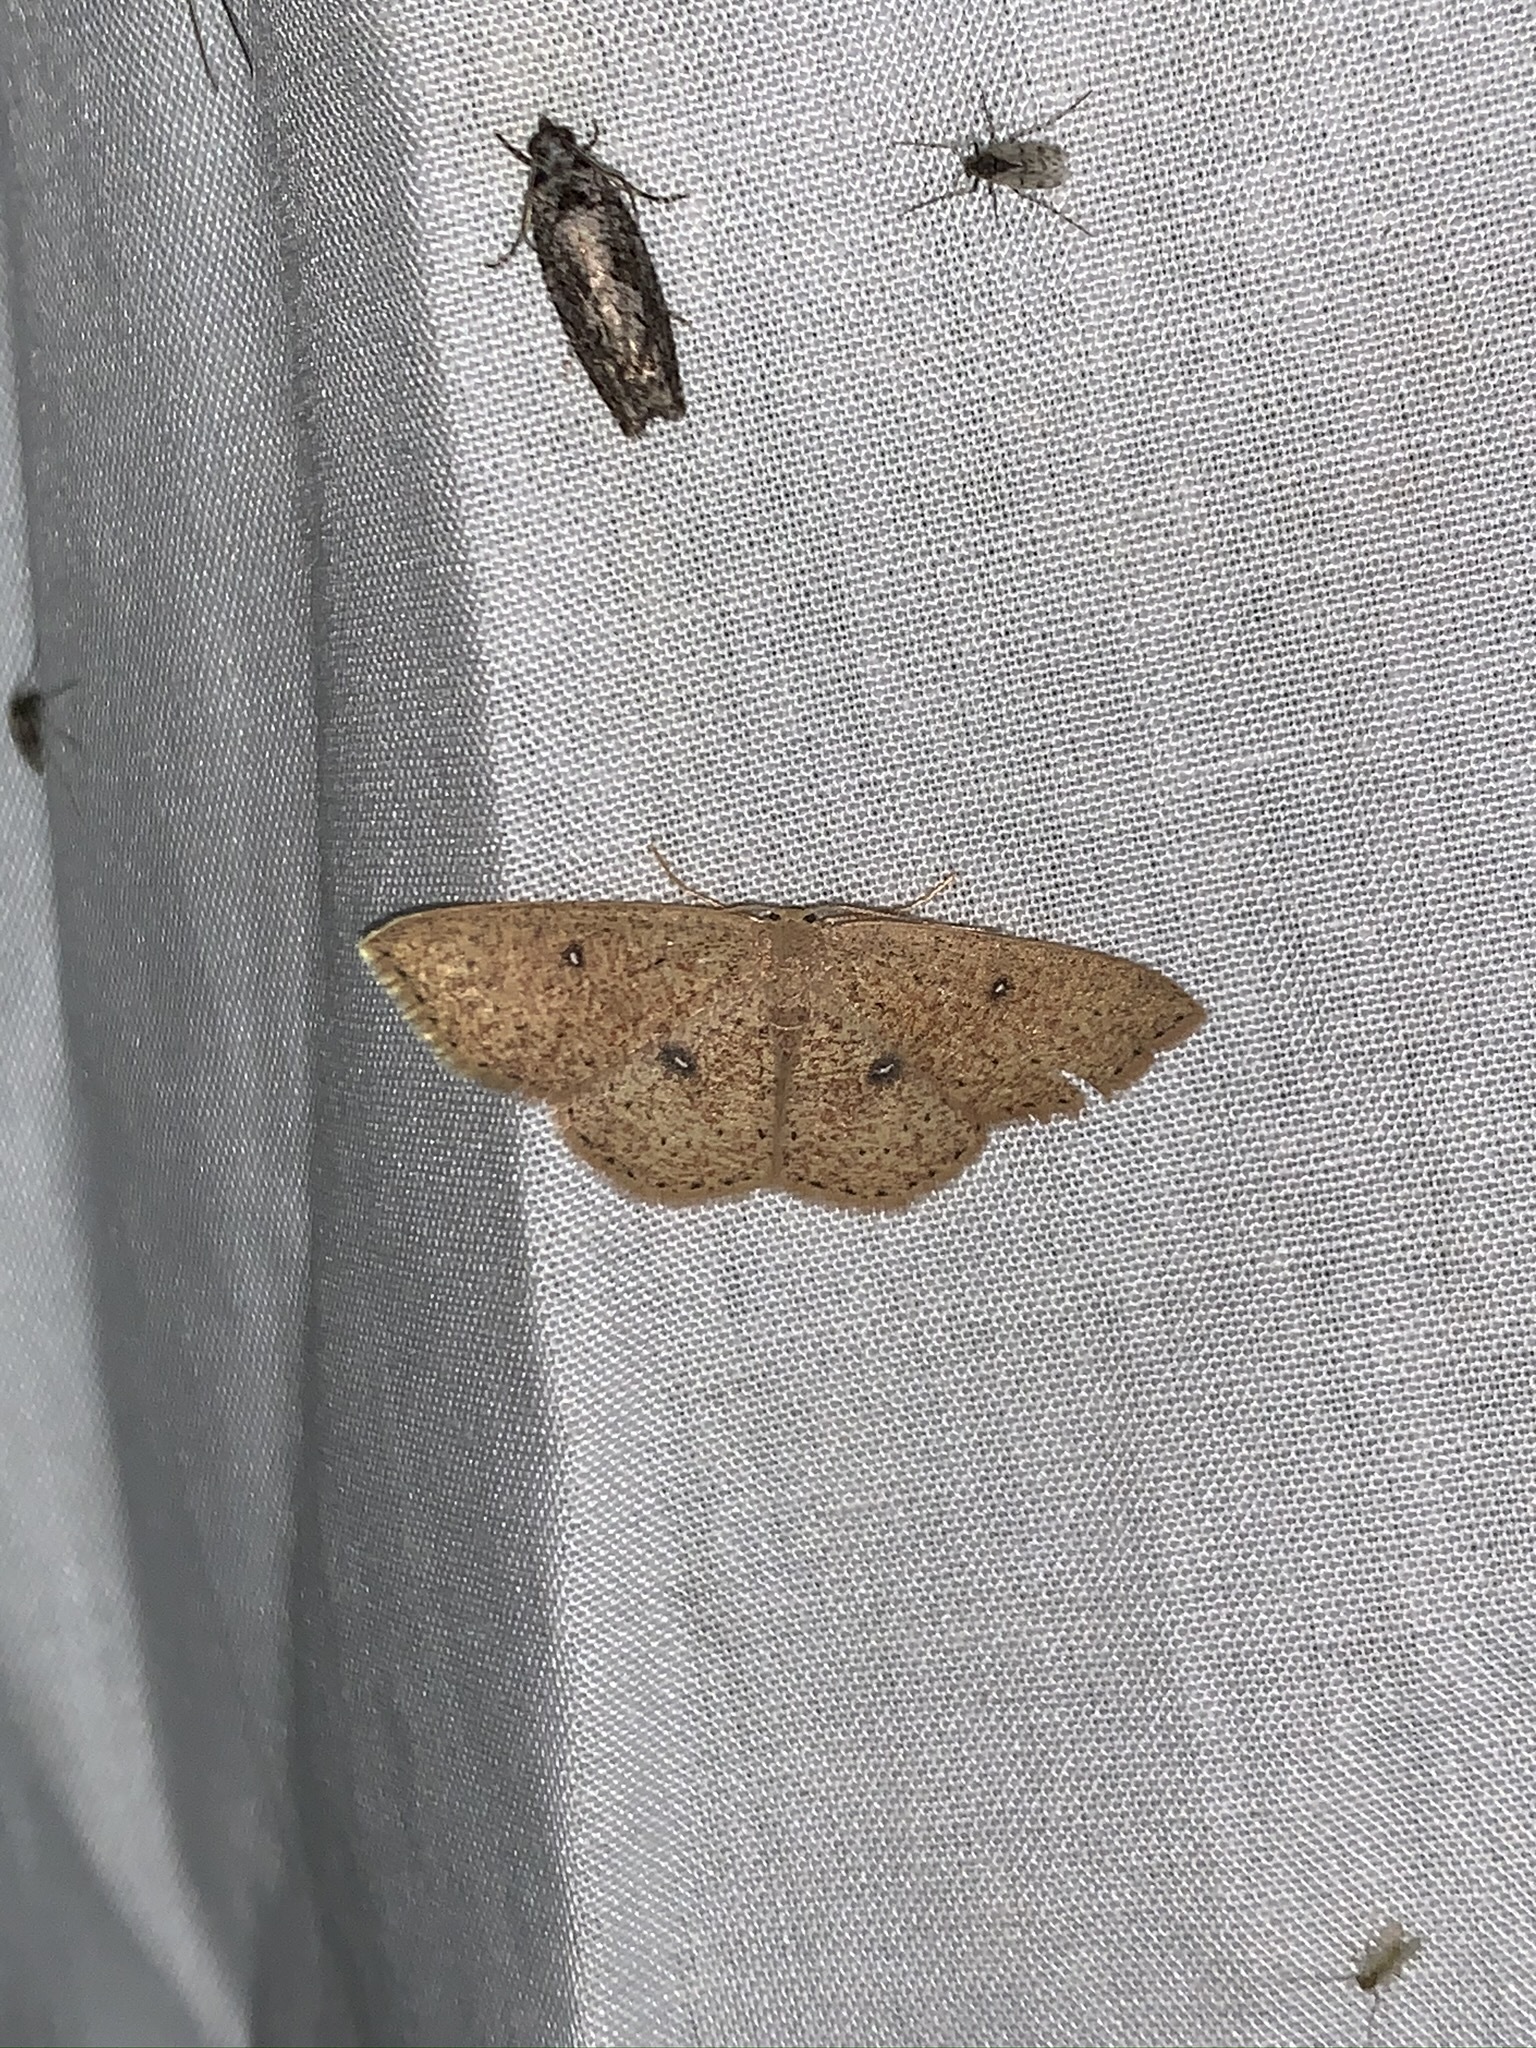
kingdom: Animalia
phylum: Arthropoda
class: Insecta
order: Lepidoptera
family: Geometridae
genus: Cyclophora
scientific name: Cyclophora packardi
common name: Packard's wave
